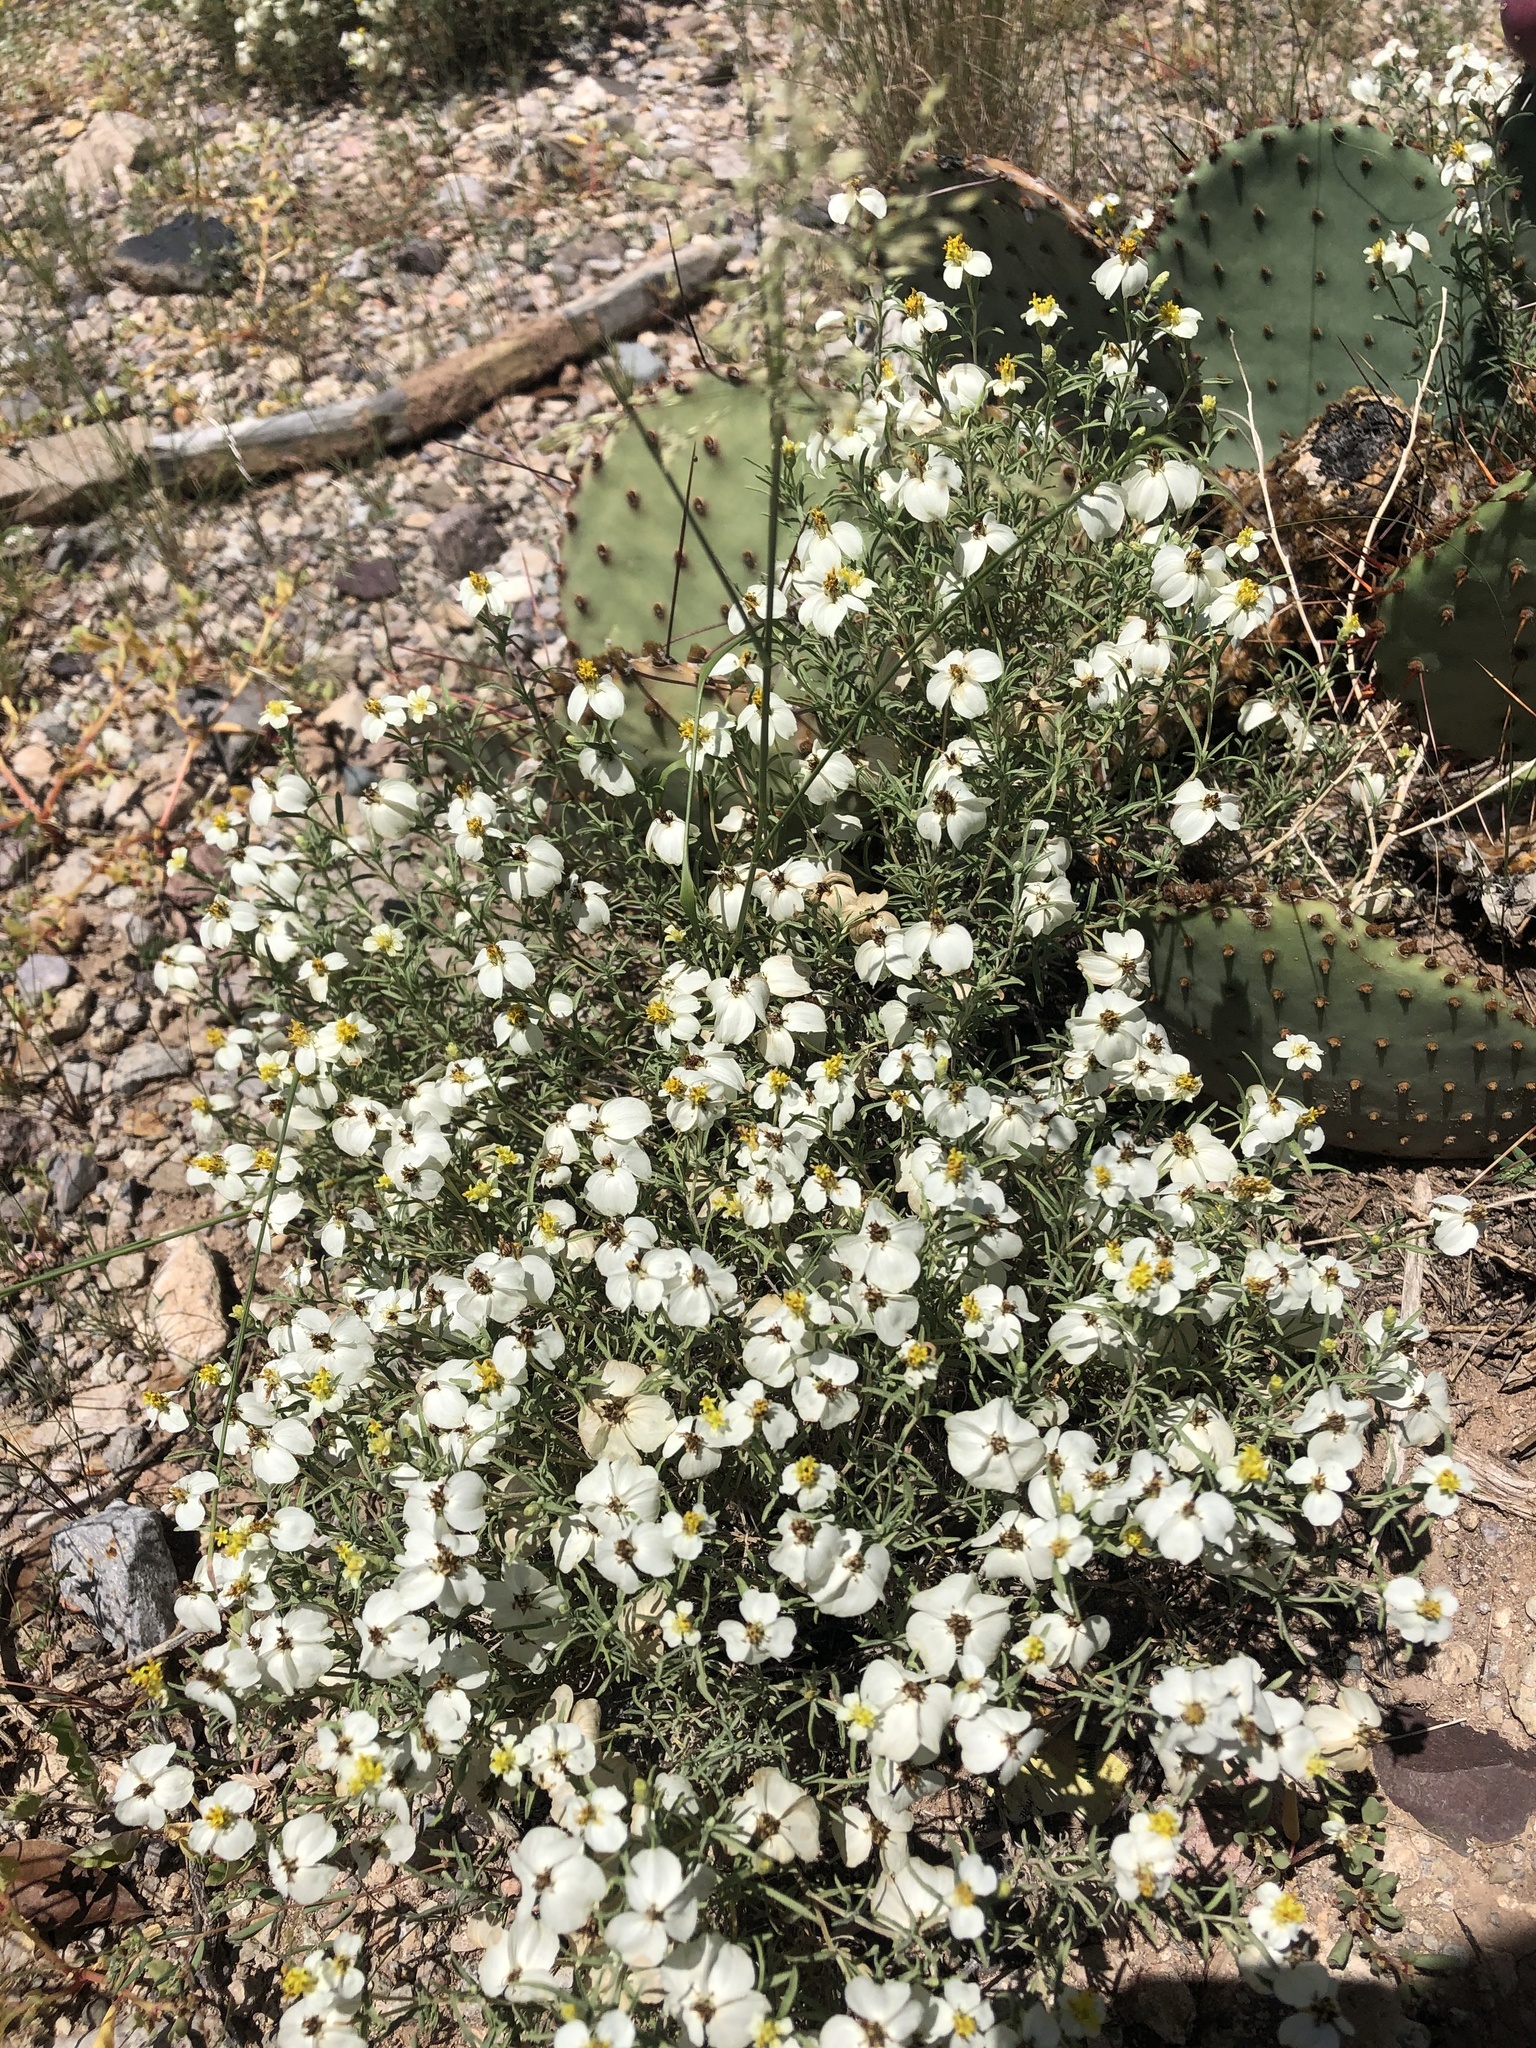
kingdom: Plantae
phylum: Tracheophyta
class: Magnoliopsida
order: Asterales
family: Asteraceae
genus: Zinnia
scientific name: Zinnia acerosa
